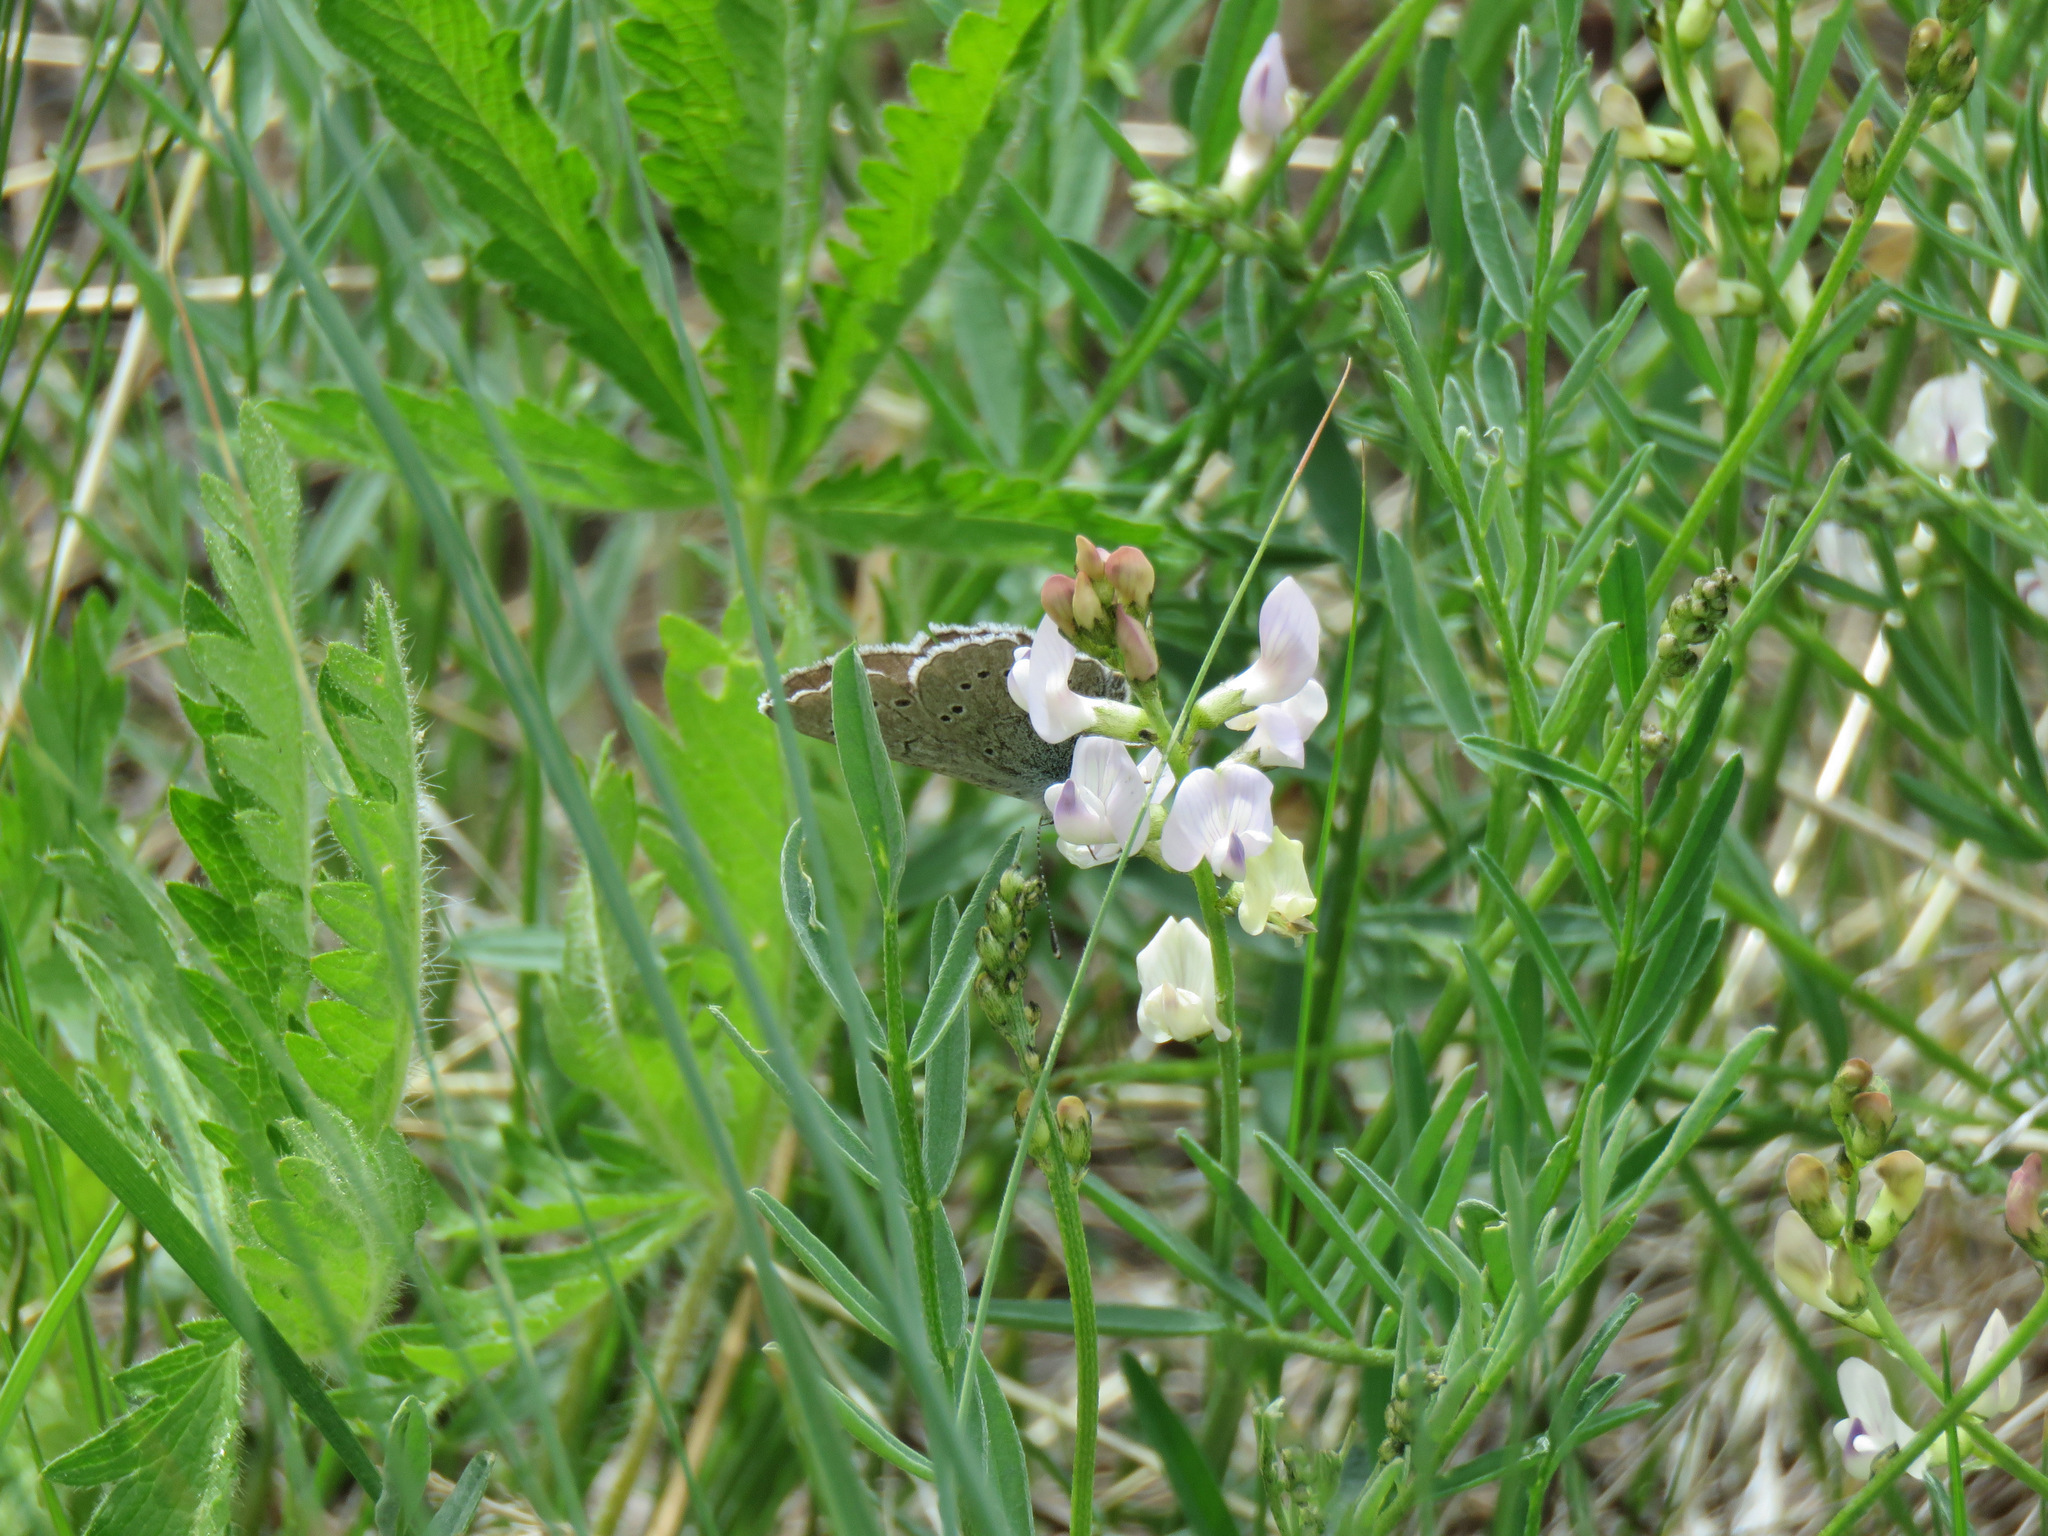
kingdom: Animalia
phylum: Arthropoda
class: Insecta
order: Lepidoptera
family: Lycaenidae
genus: Glaucopsyche
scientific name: Glaucopsyche lygdamus
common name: Silvery blue
